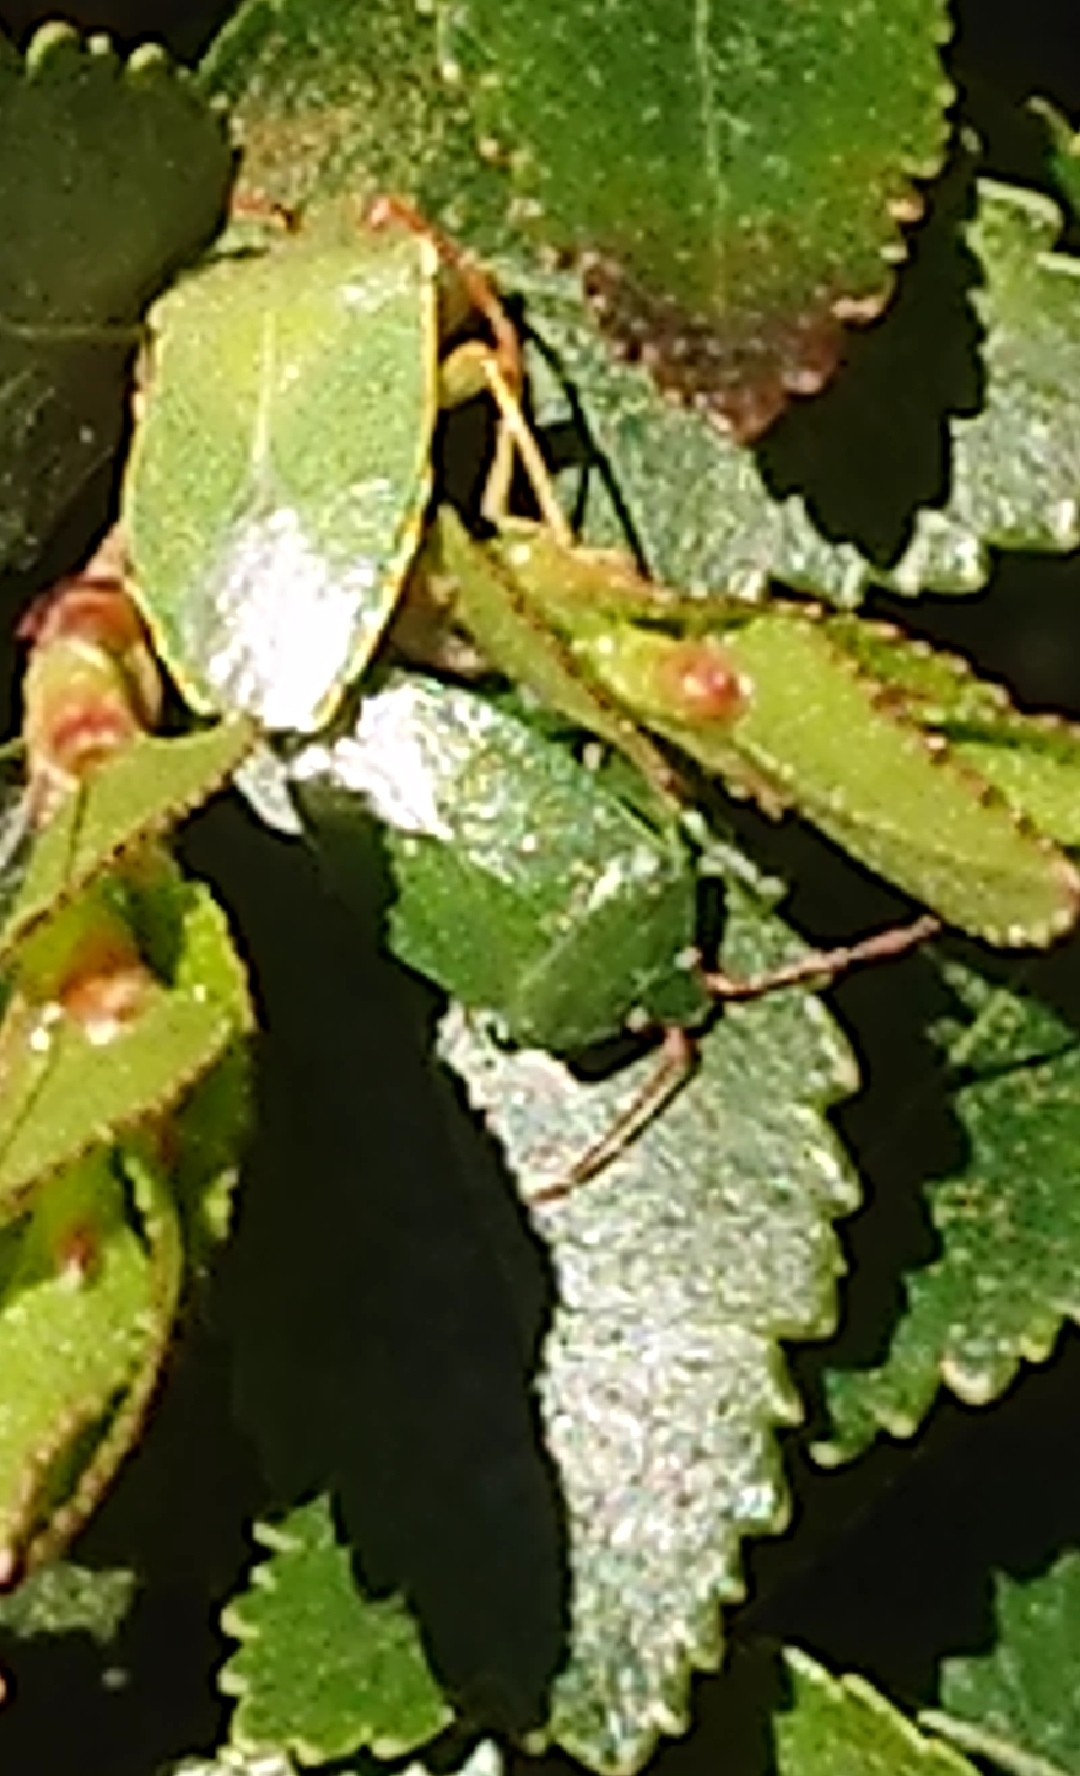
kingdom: Animalia
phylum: Arthropoda
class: Insecta
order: Hemiptera
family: Acanthosomatidae
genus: Sinopla
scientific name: Sinopla perpunctatus
